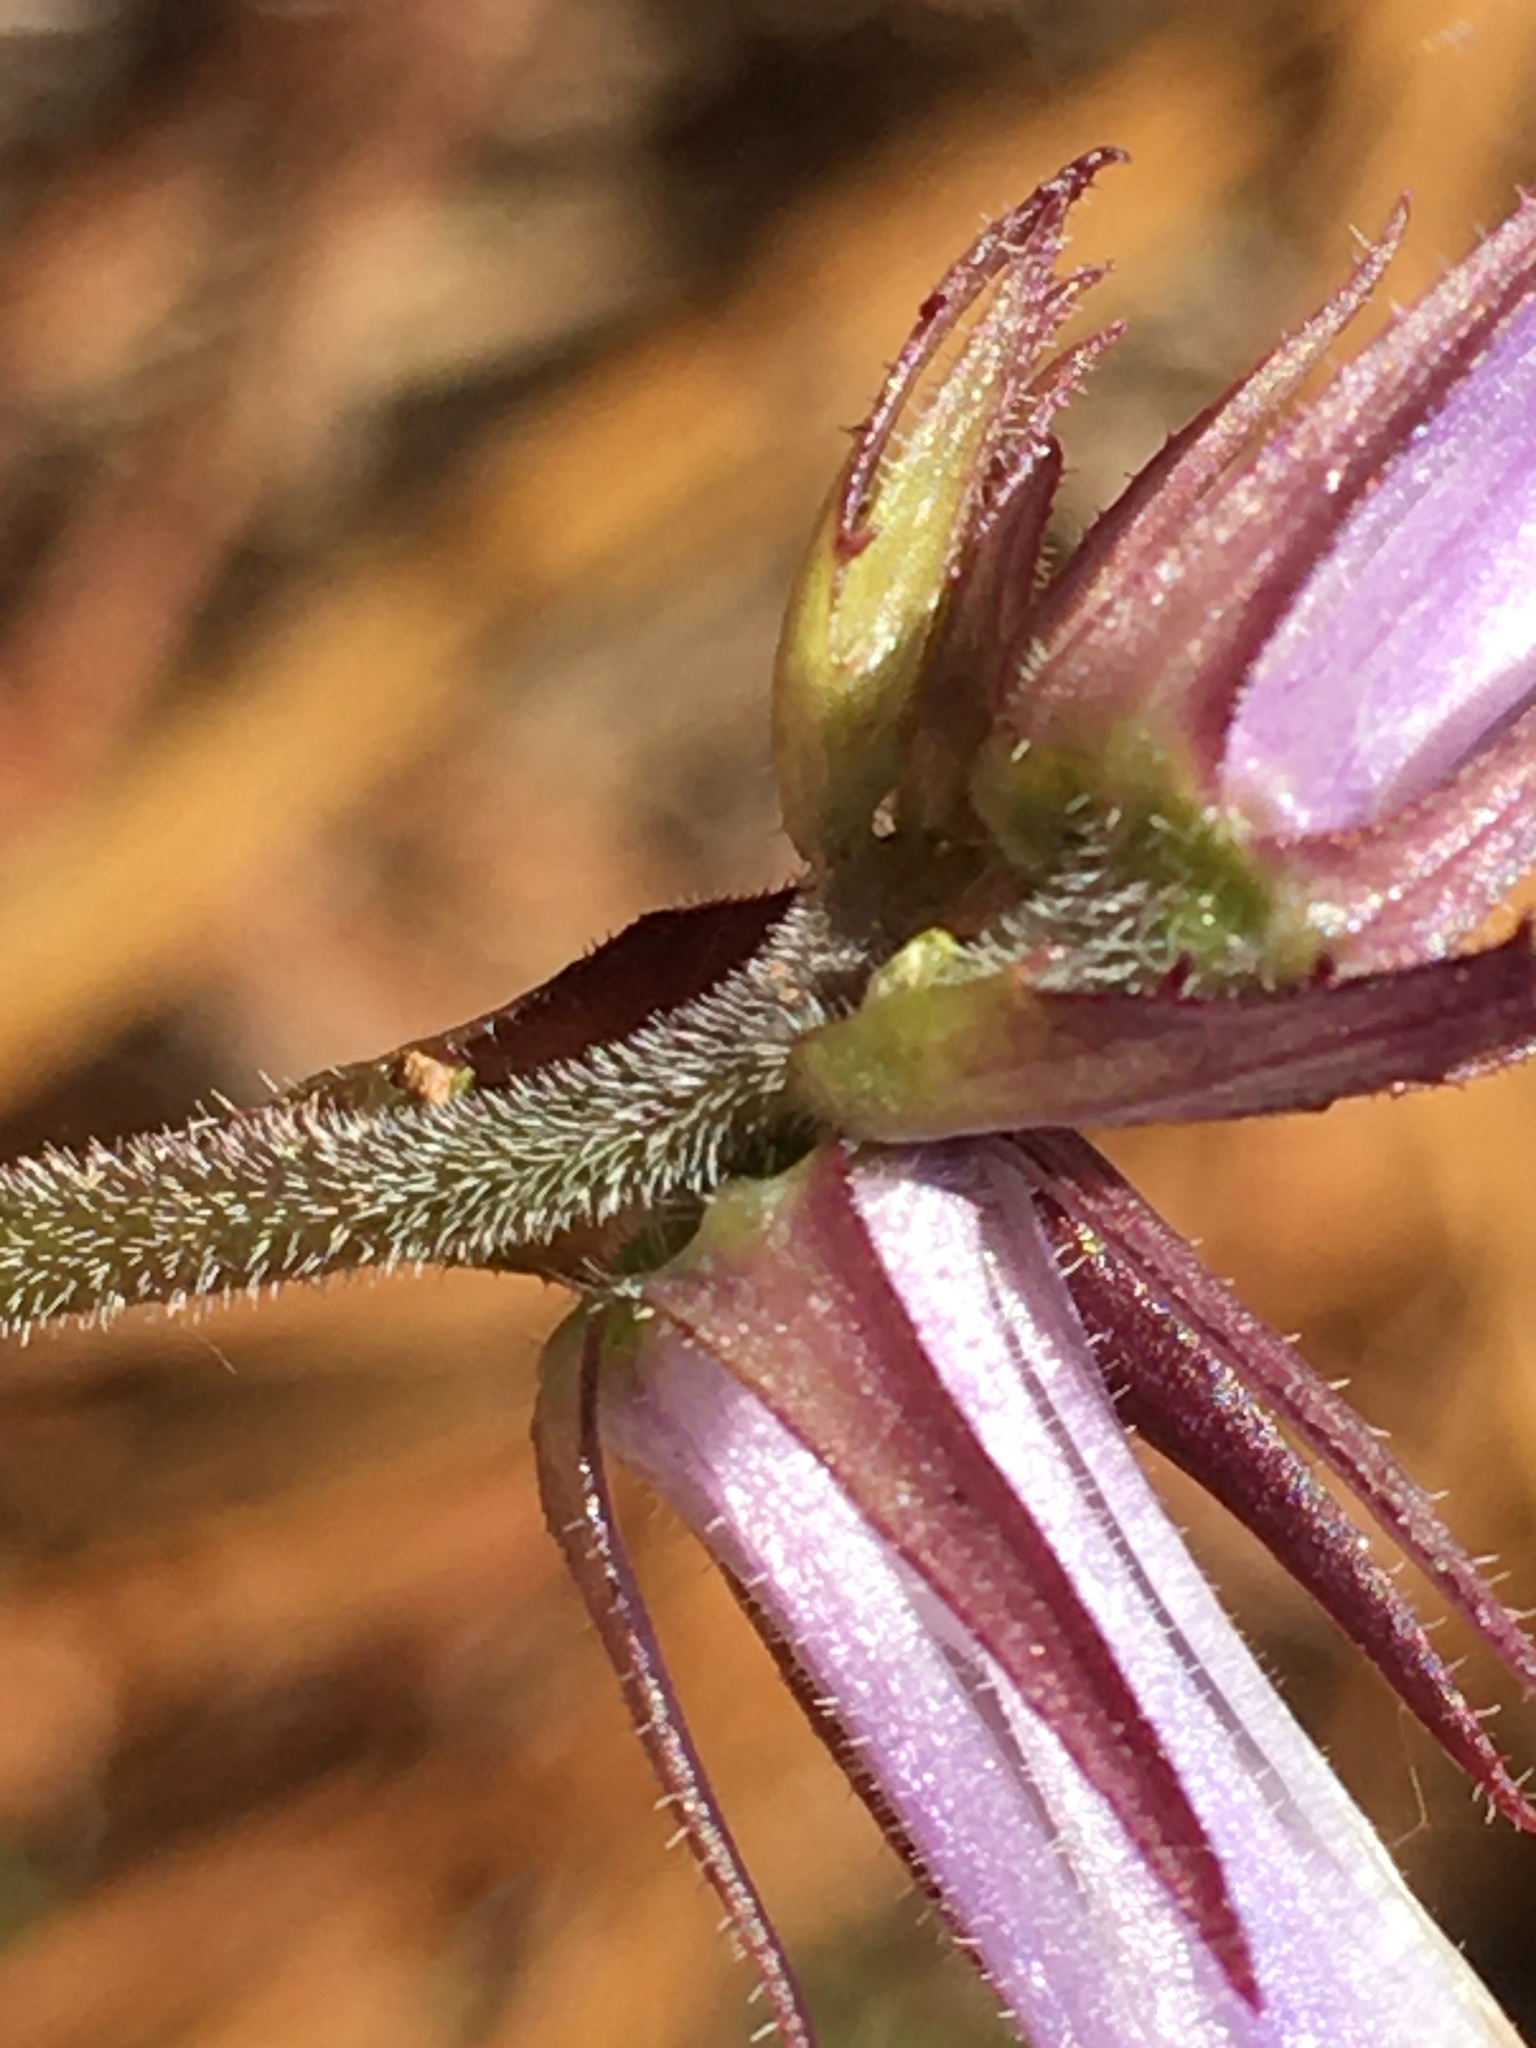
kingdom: Plantae
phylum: Tracheophyta
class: Magnoliopsida
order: Asterales
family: Campanulaceae
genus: Lobelia
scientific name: Lobelia puberula
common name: Purple dewdrop
